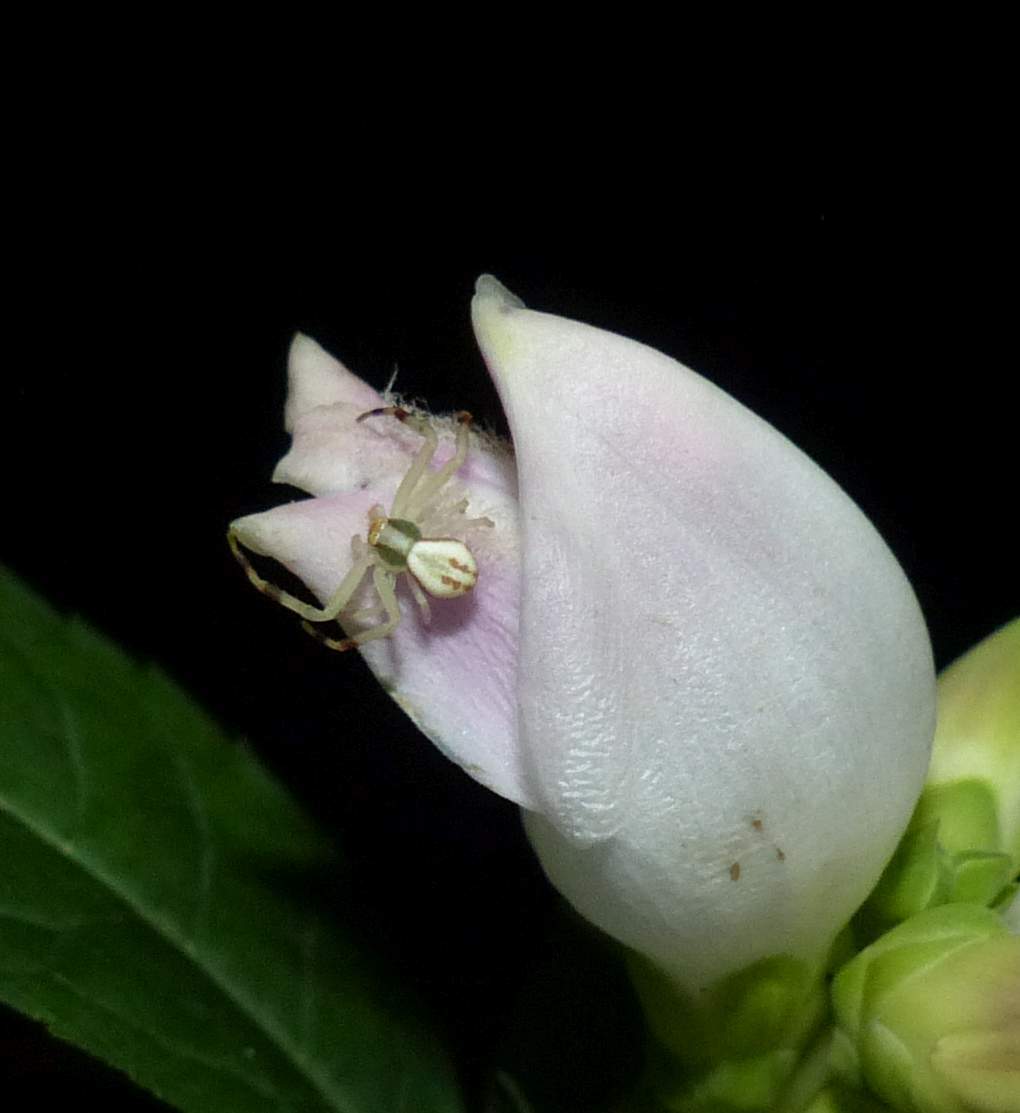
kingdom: Animalia
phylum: Arthropoda
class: Arachnida
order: Araneae
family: Thomisidae
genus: Misumena
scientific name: Misumena vatia
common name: Goldenrod crab spider
